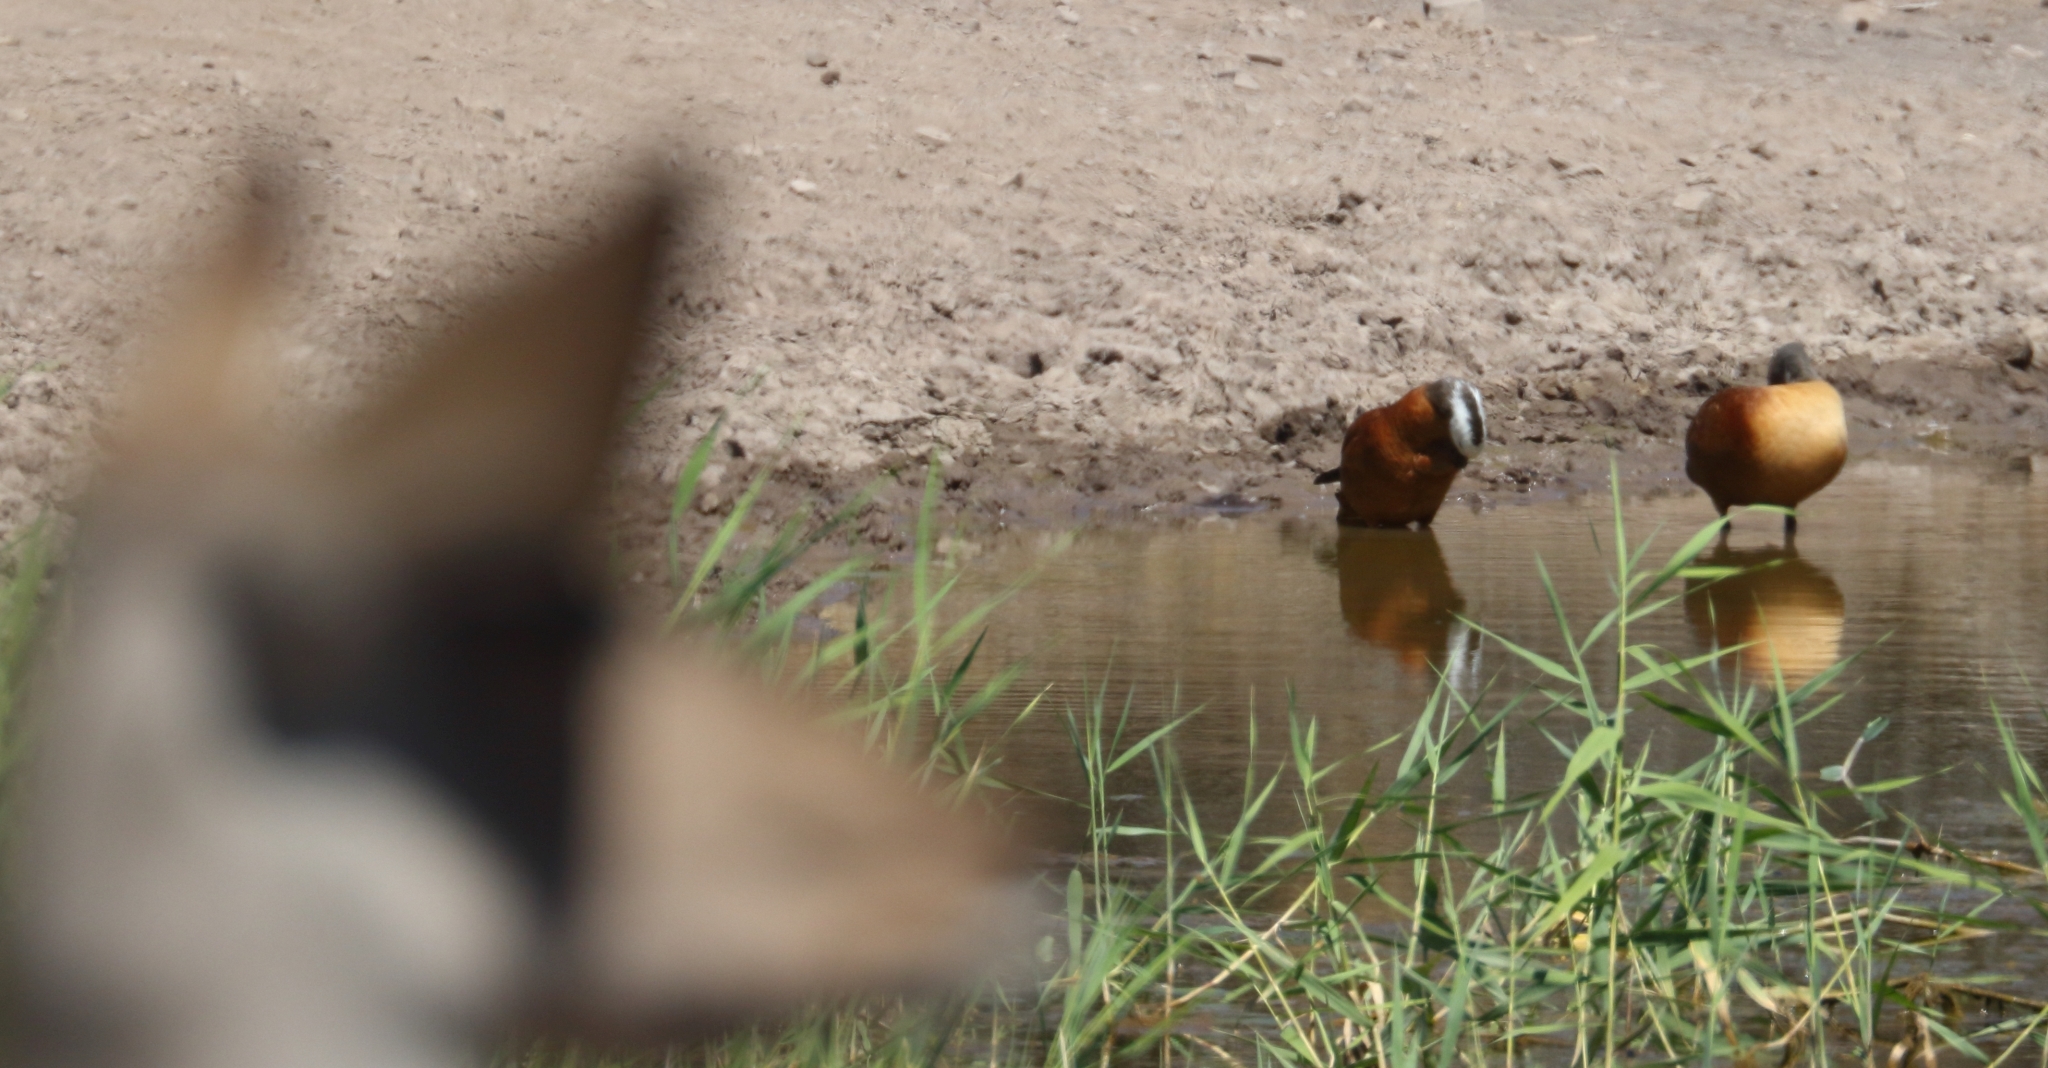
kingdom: Animalia
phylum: Chordata
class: Aves
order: Anseriformes
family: Anatidae
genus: Tadorna
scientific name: Tadorna cana
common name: South african shelduck
